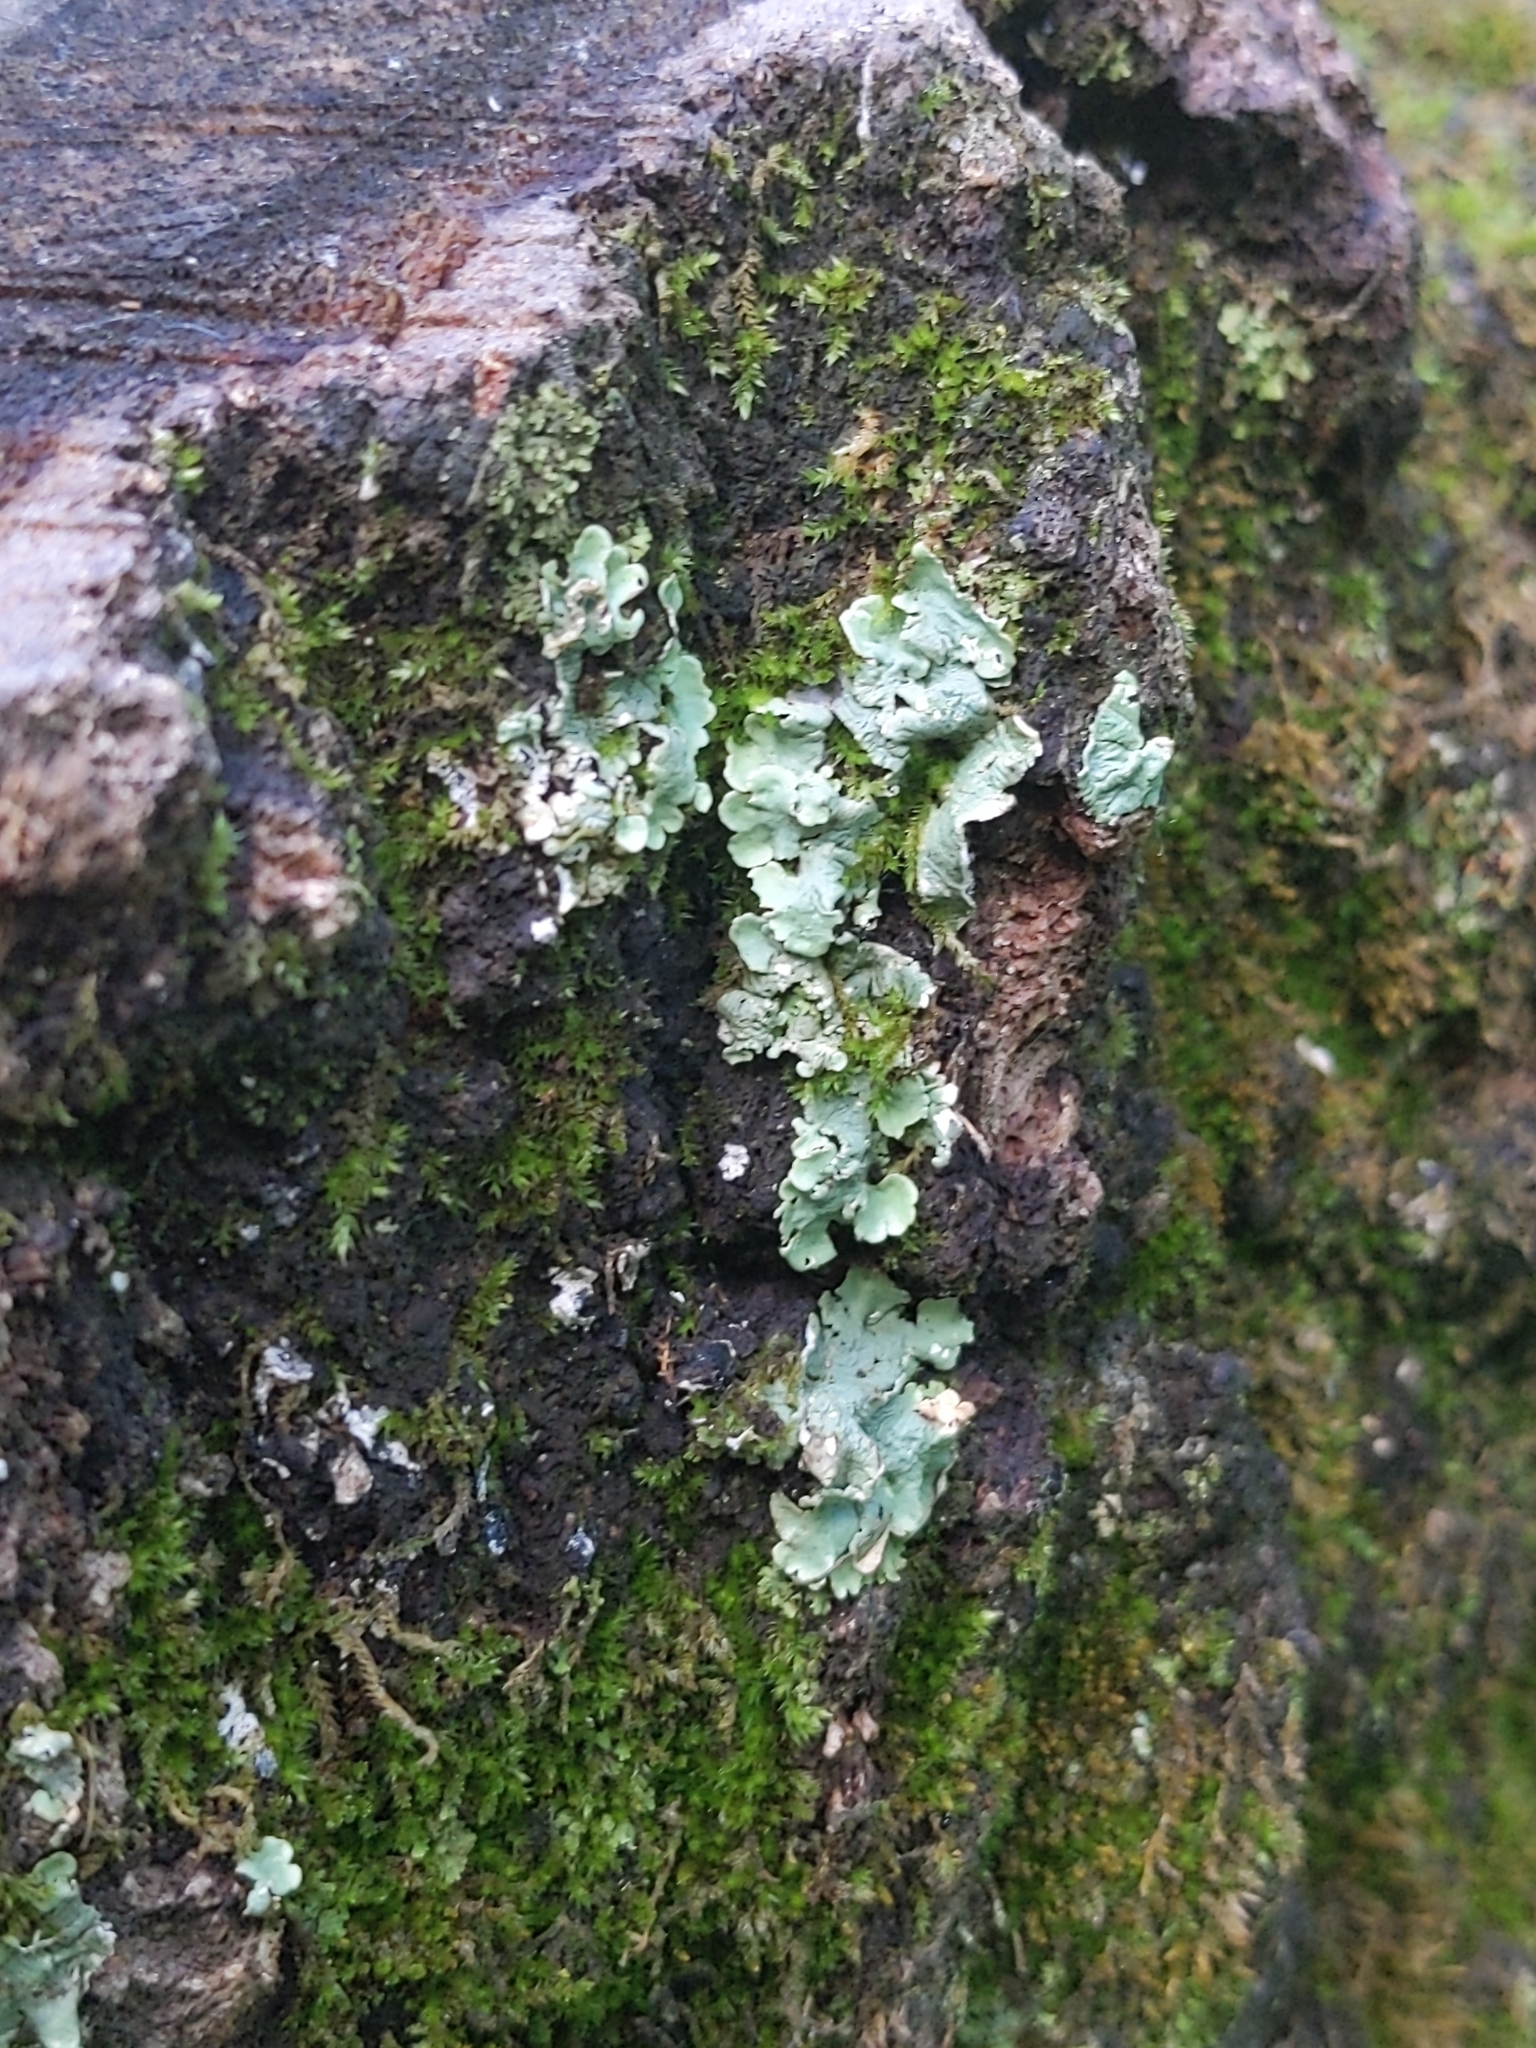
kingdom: Fungi
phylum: Ascomycota
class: Lecanoromycetes
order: Lecanorales
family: Parmeliaceae
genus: Flavoparmelia
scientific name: Flavoparmelia caperata
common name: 40-mile per hour lichen
